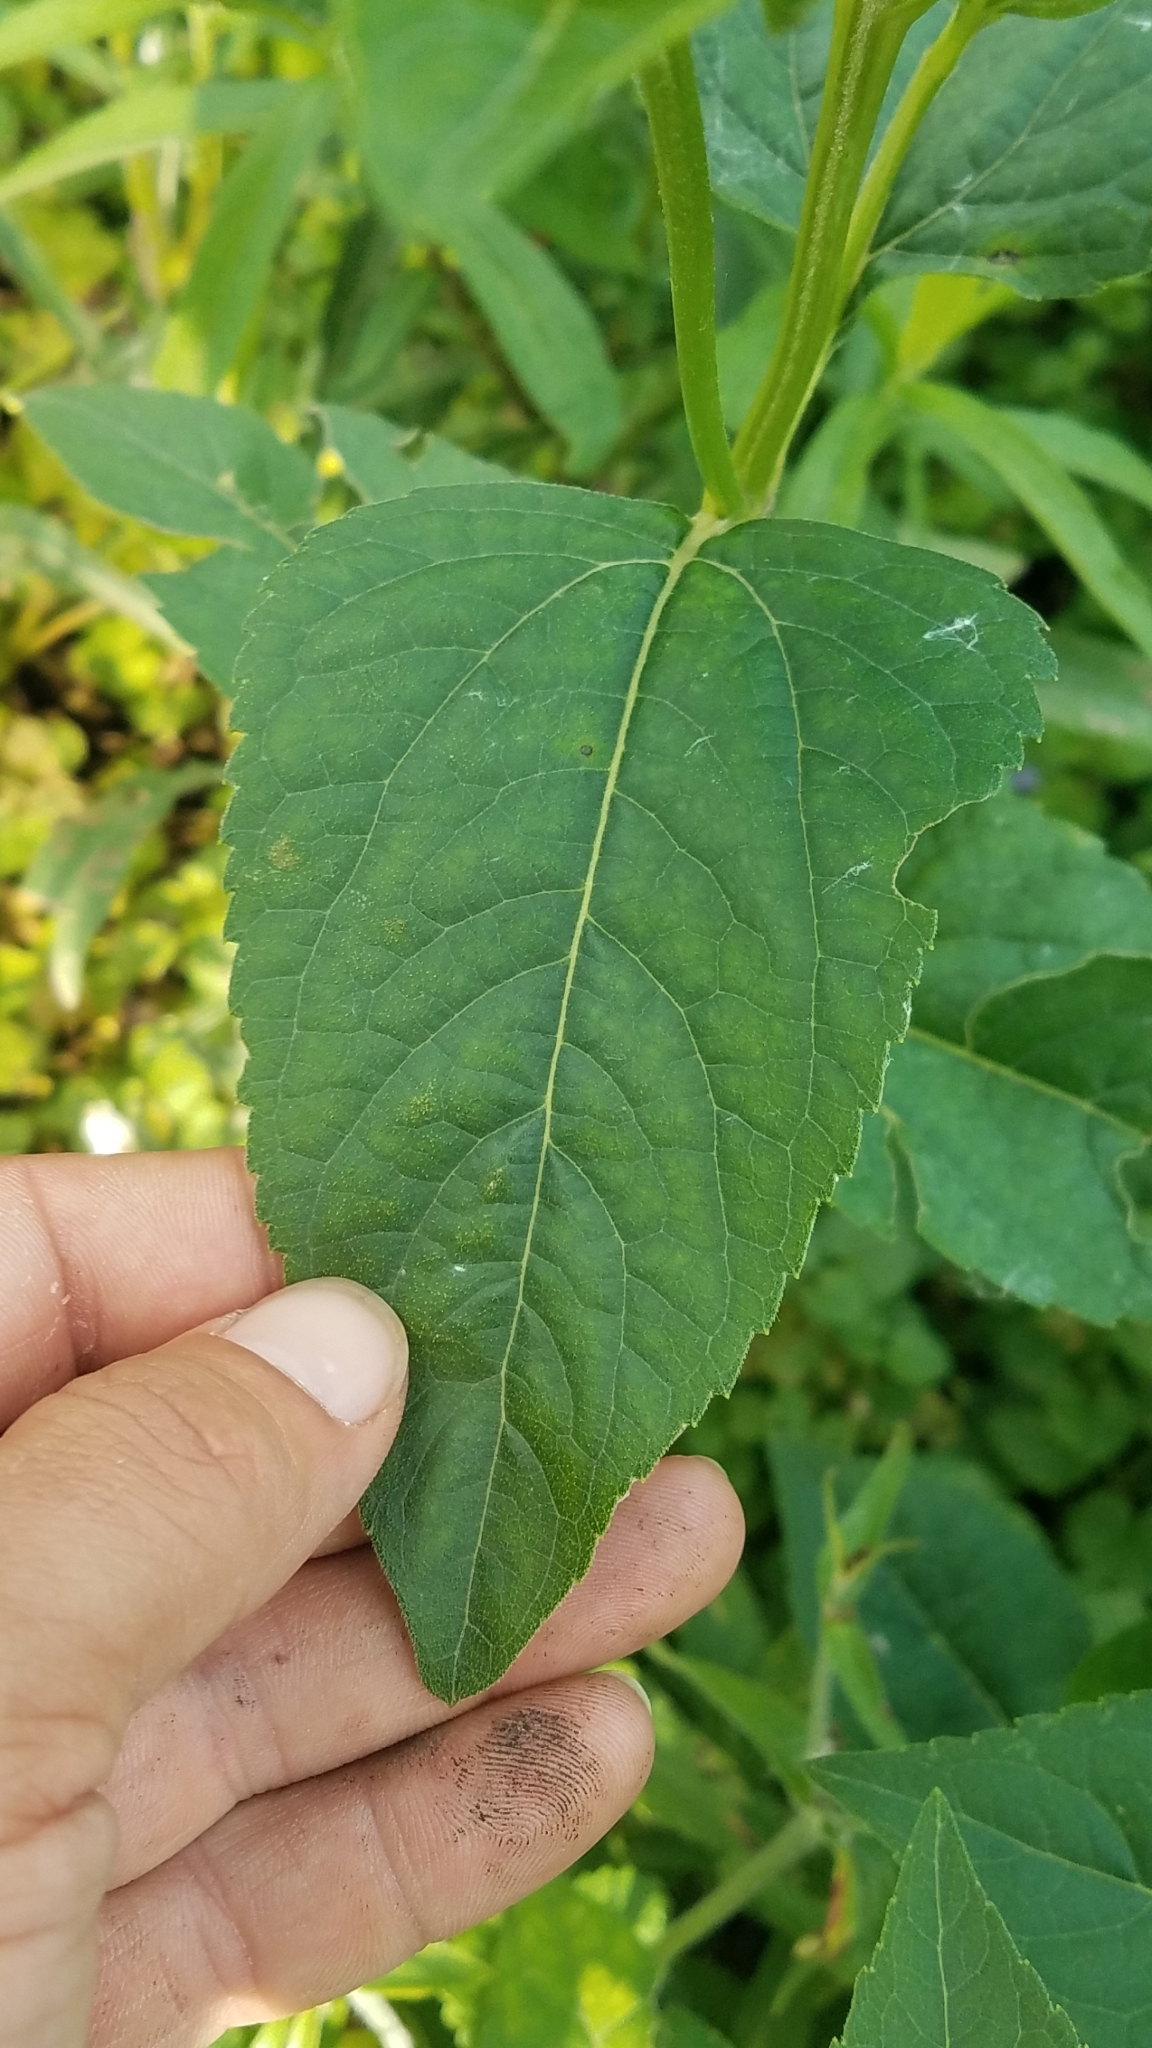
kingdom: Plantae
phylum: Tracheophyta
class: Magnoliopsida
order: Asterales
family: Asteraceae
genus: Heliopsis
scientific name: Heliopsis helianthoides
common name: False sunflower
